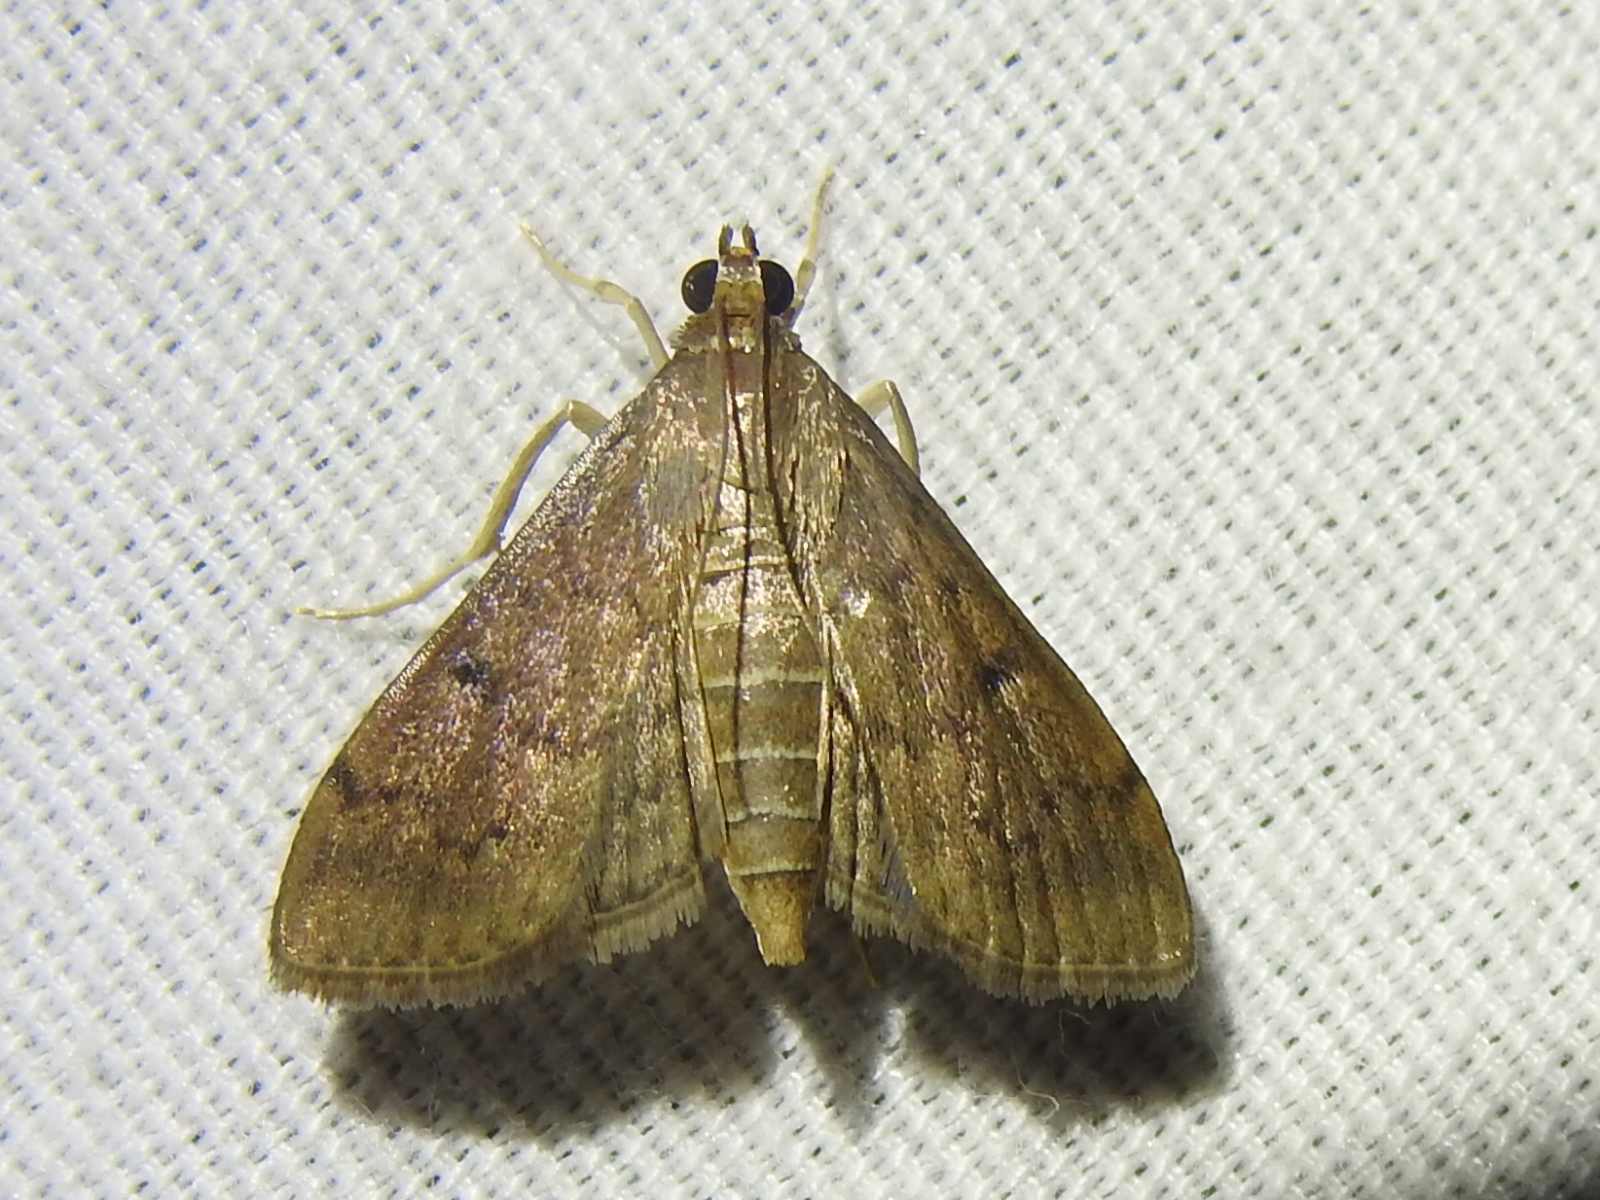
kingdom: Animalia
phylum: Arthropoda
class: Insecta
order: Lepidoptera
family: Crambidae
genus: Herpetogramma
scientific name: Herpetogramma phaeopteralis
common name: Dusky herpetogramma moth
